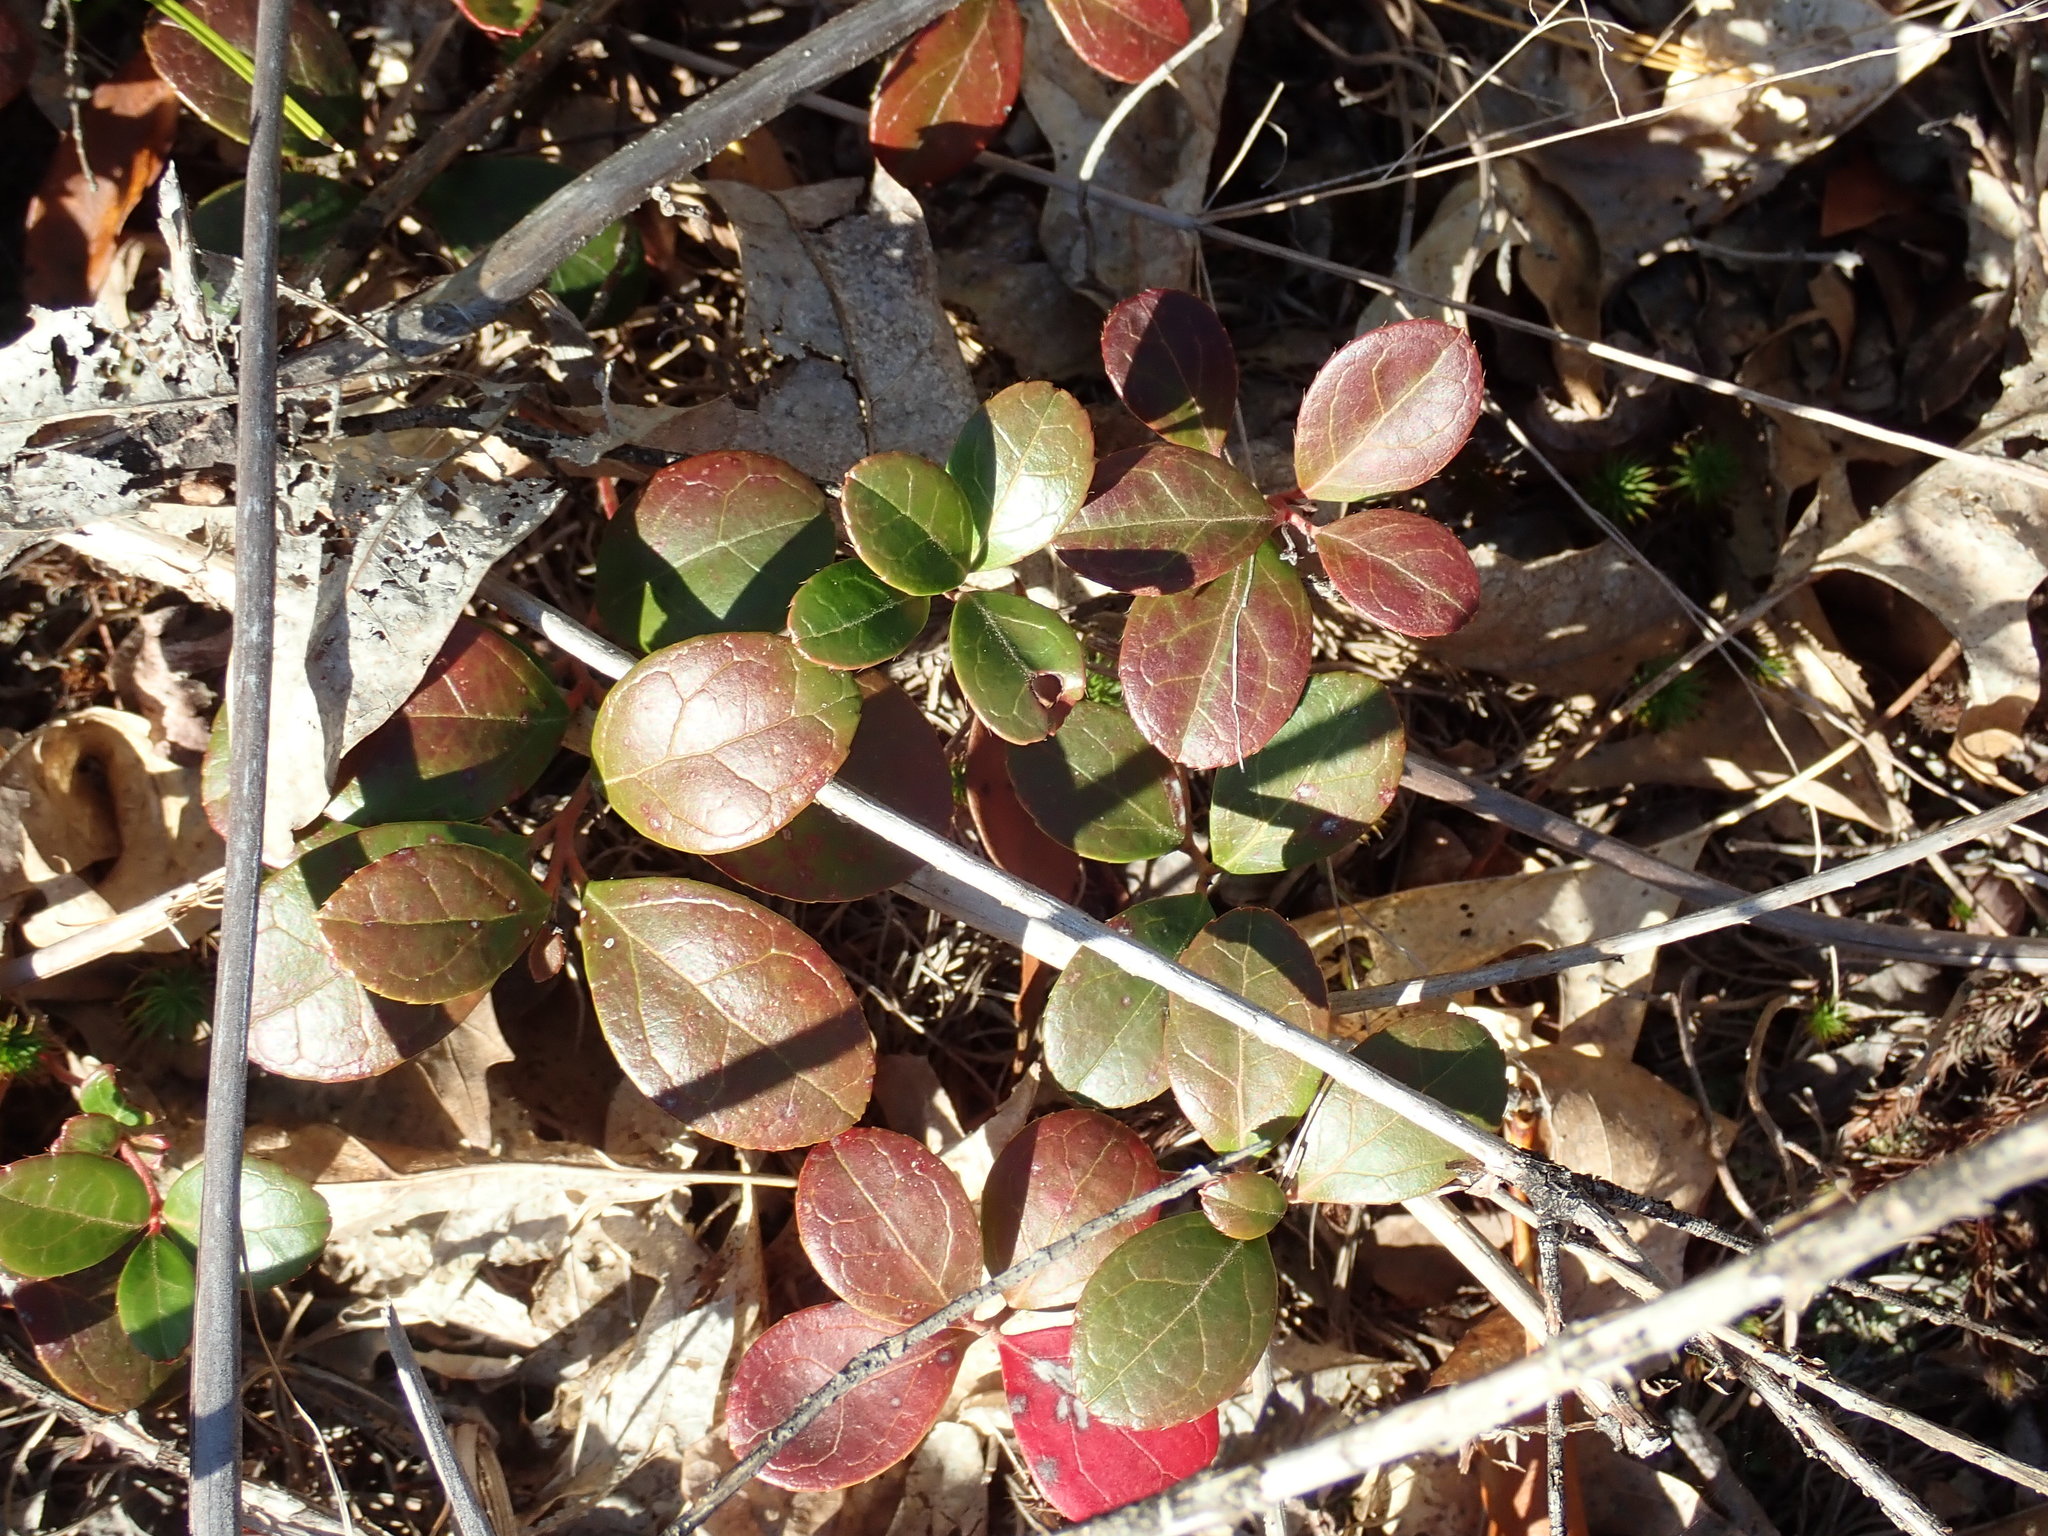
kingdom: Plantae
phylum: Tracheophyta
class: Magnoliopsida
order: Ericales
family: Ericaceae
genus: Gaultheria
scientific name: Gaultheria procumbens
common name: Checkerberry
